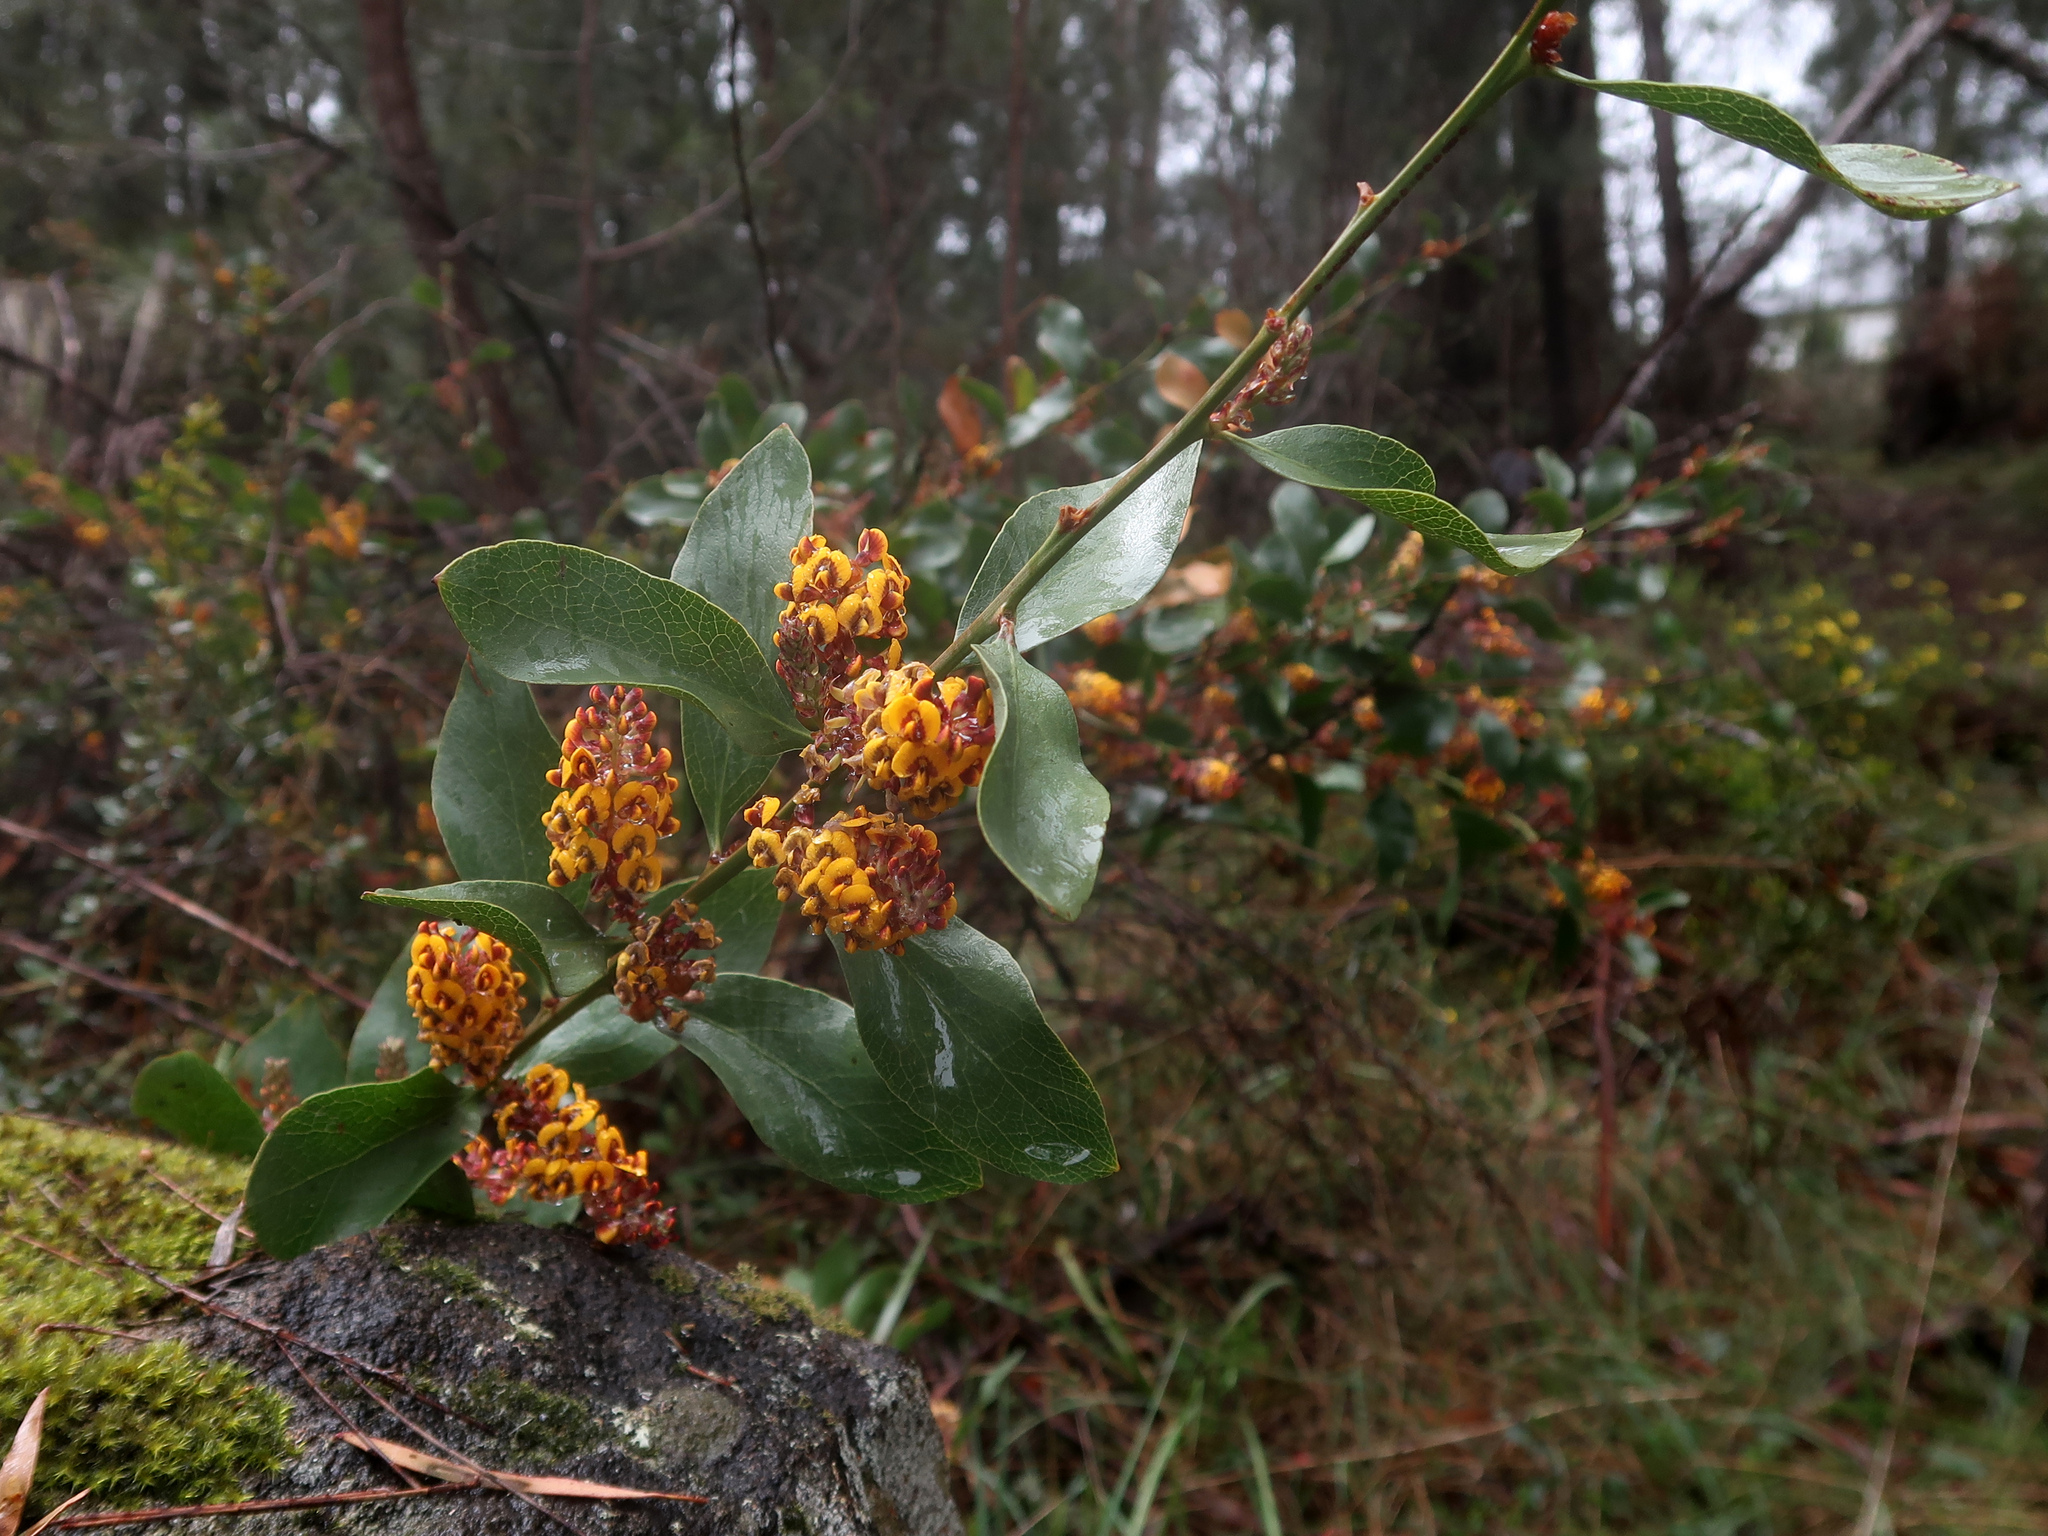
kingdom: Plantae
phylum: Tracheophyta
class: Magnoliopsida
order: Fabales
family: Fabaceae
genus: Daviesia
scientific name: Daviesia latifolia
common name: Hop bitter-pea
